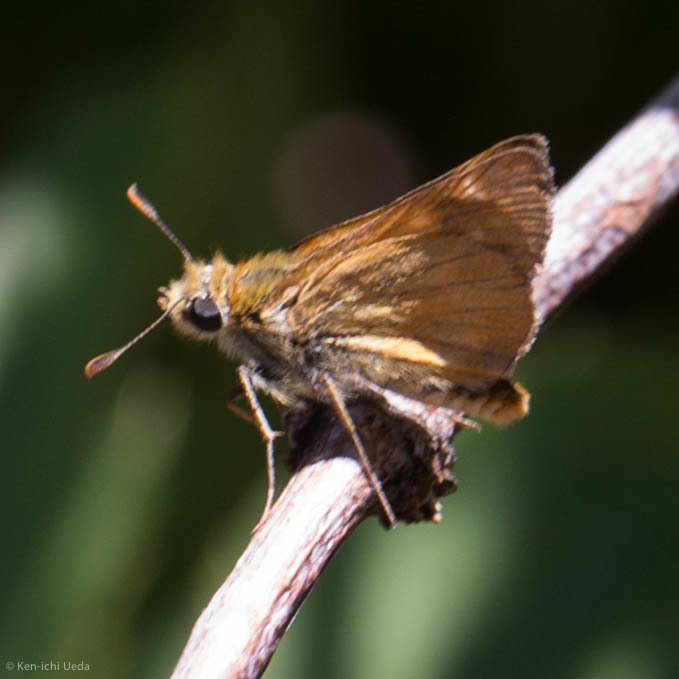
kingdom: Animalia
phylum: Arthropoda
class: Insecta
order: Lepidoptera
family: Hesperiidae
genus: Ochlodes
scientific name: Ochlodes agricola
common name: Rural skipper
